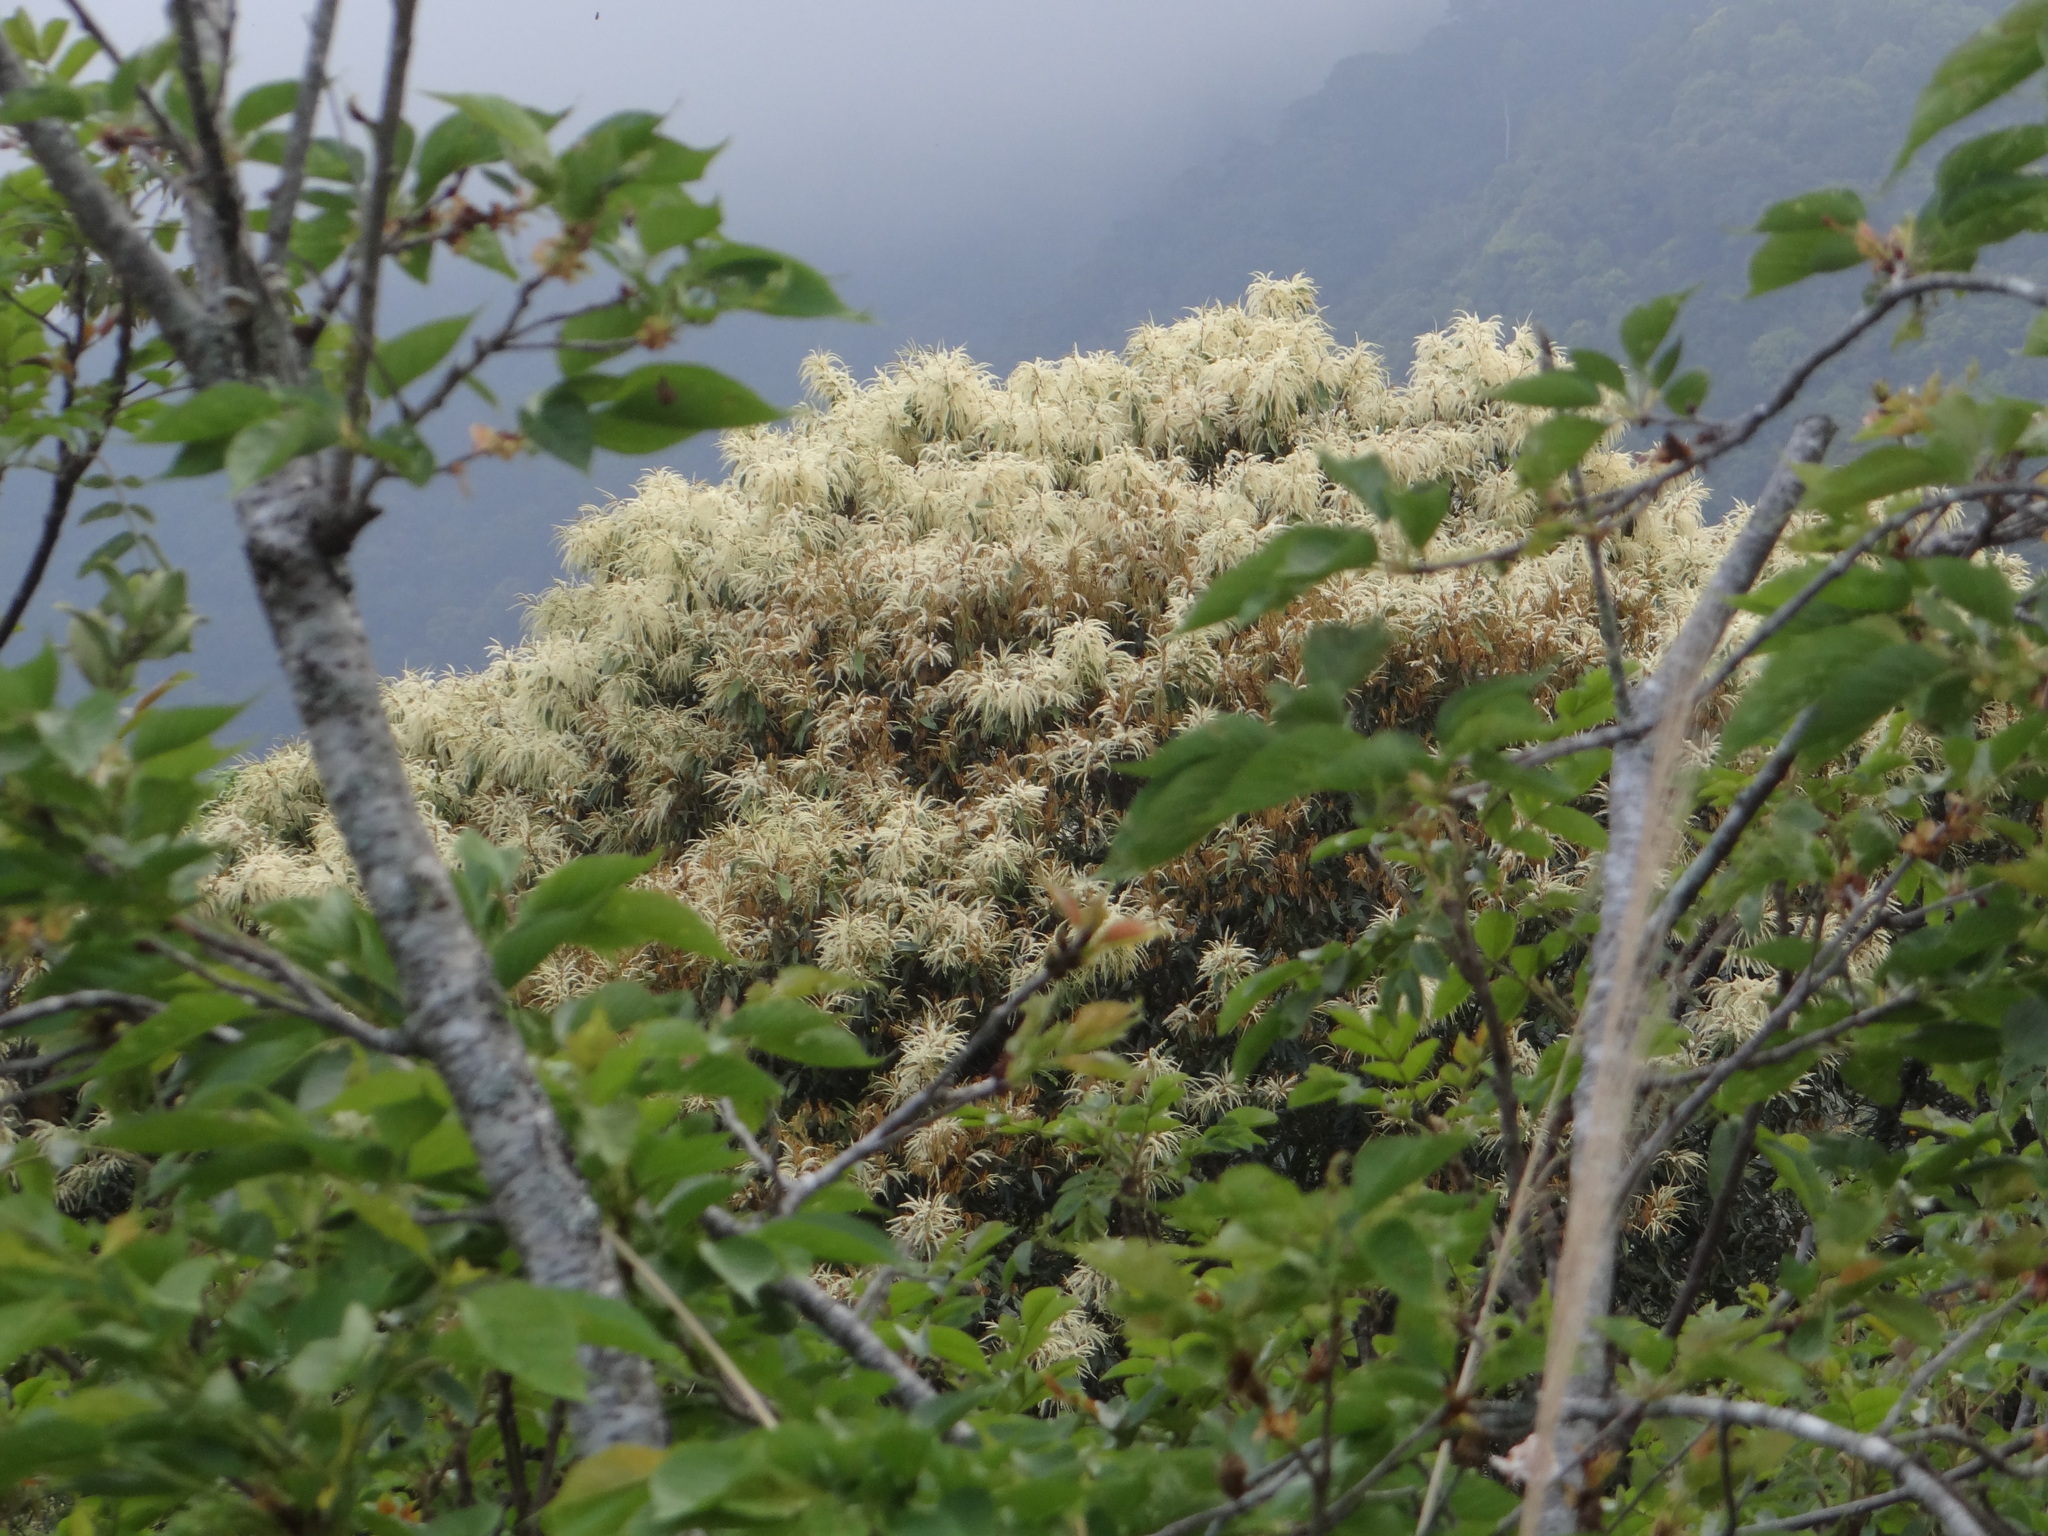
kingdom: Plantae
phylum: Tracheophyta
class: Magnoliopsida
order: Fagales
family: Fagaceae
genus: Castanopsis
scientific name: Castanopsis fargesii
